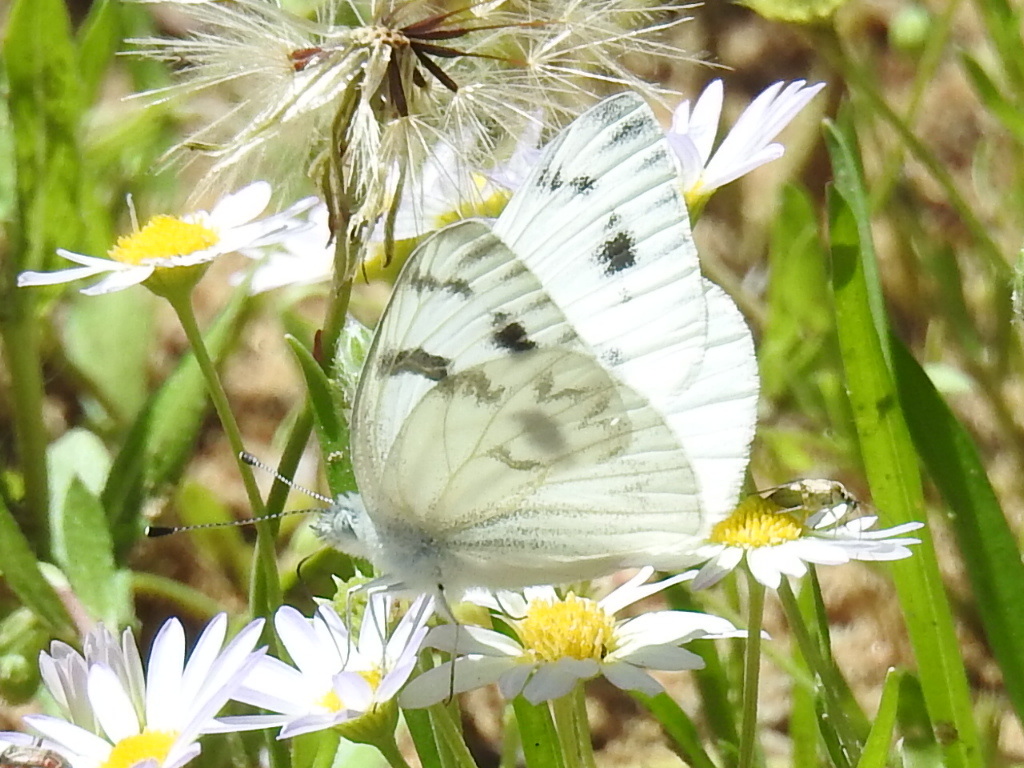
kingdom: Animalia
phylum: Arthropoda
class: Insecta
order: Lepidoptera
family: Pieridae
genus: Pontia
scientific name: Pontia protodice
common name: Checkered white
